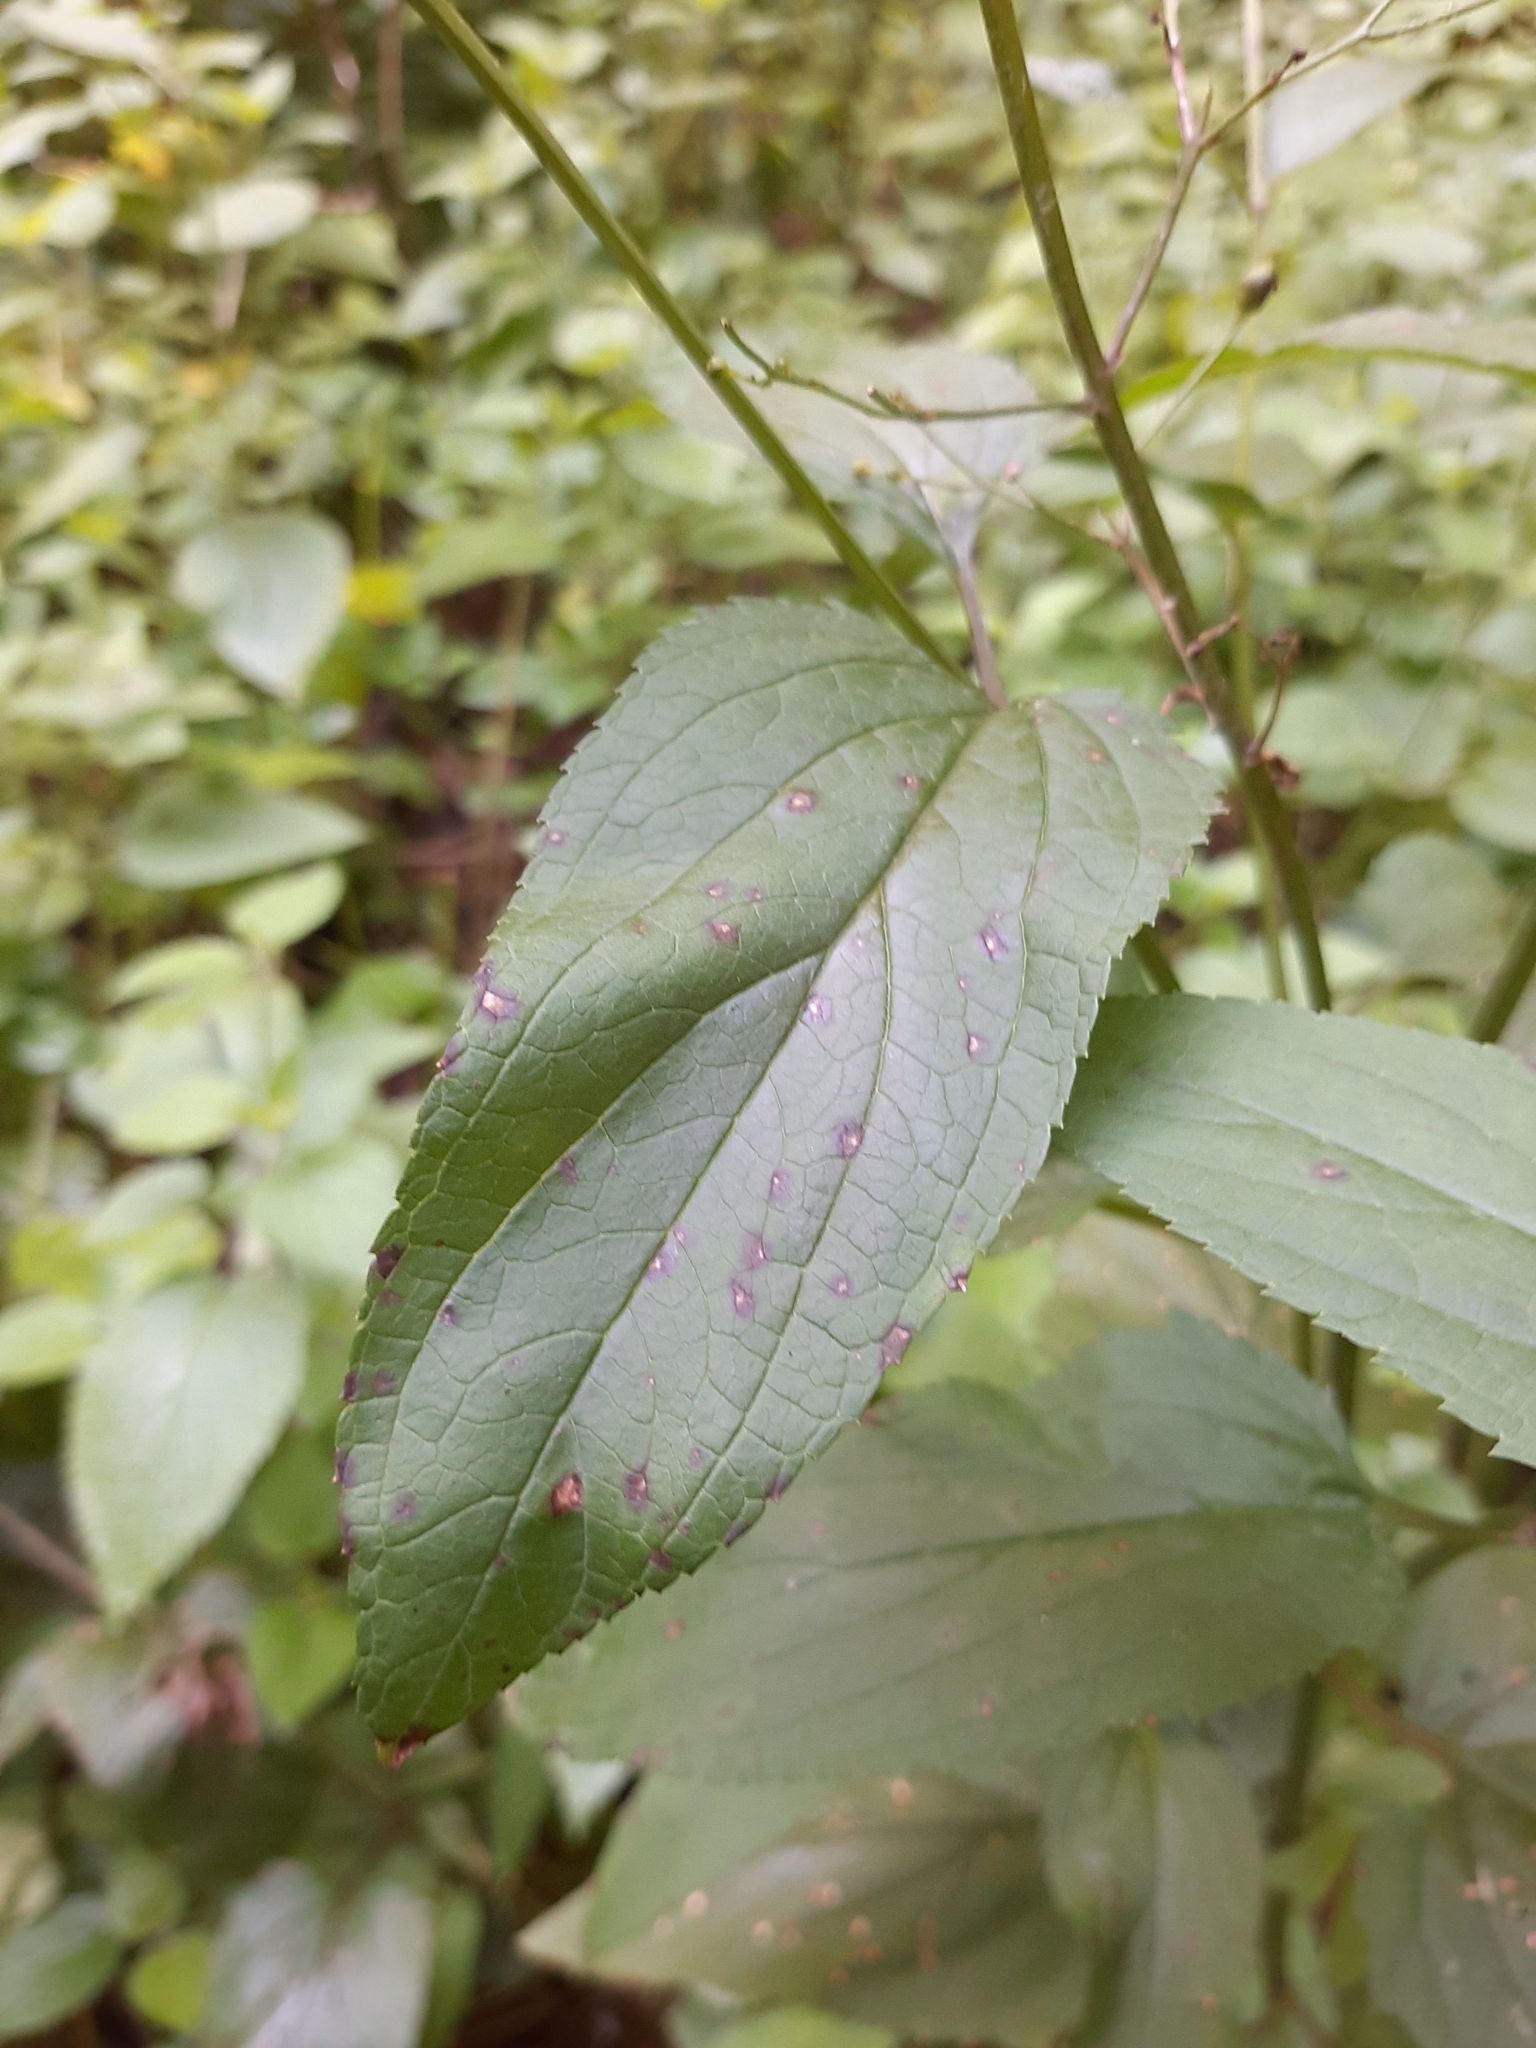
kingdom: Plantae
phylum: Tracheophyta
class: Magnoliopsida
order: Lamiales
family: Scrophulariaceae
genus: Scrophularia
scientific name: Scrophularia nodosa
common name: Common figwort
